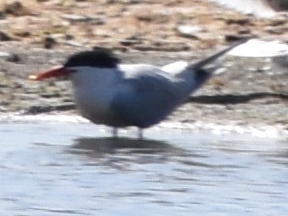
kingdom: Animalia
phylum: Chordata
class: Aves
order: Charadriiformes
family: Laridae
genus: Hydroprogne
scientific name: Hydroprogne caspia
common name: Caspian tern
